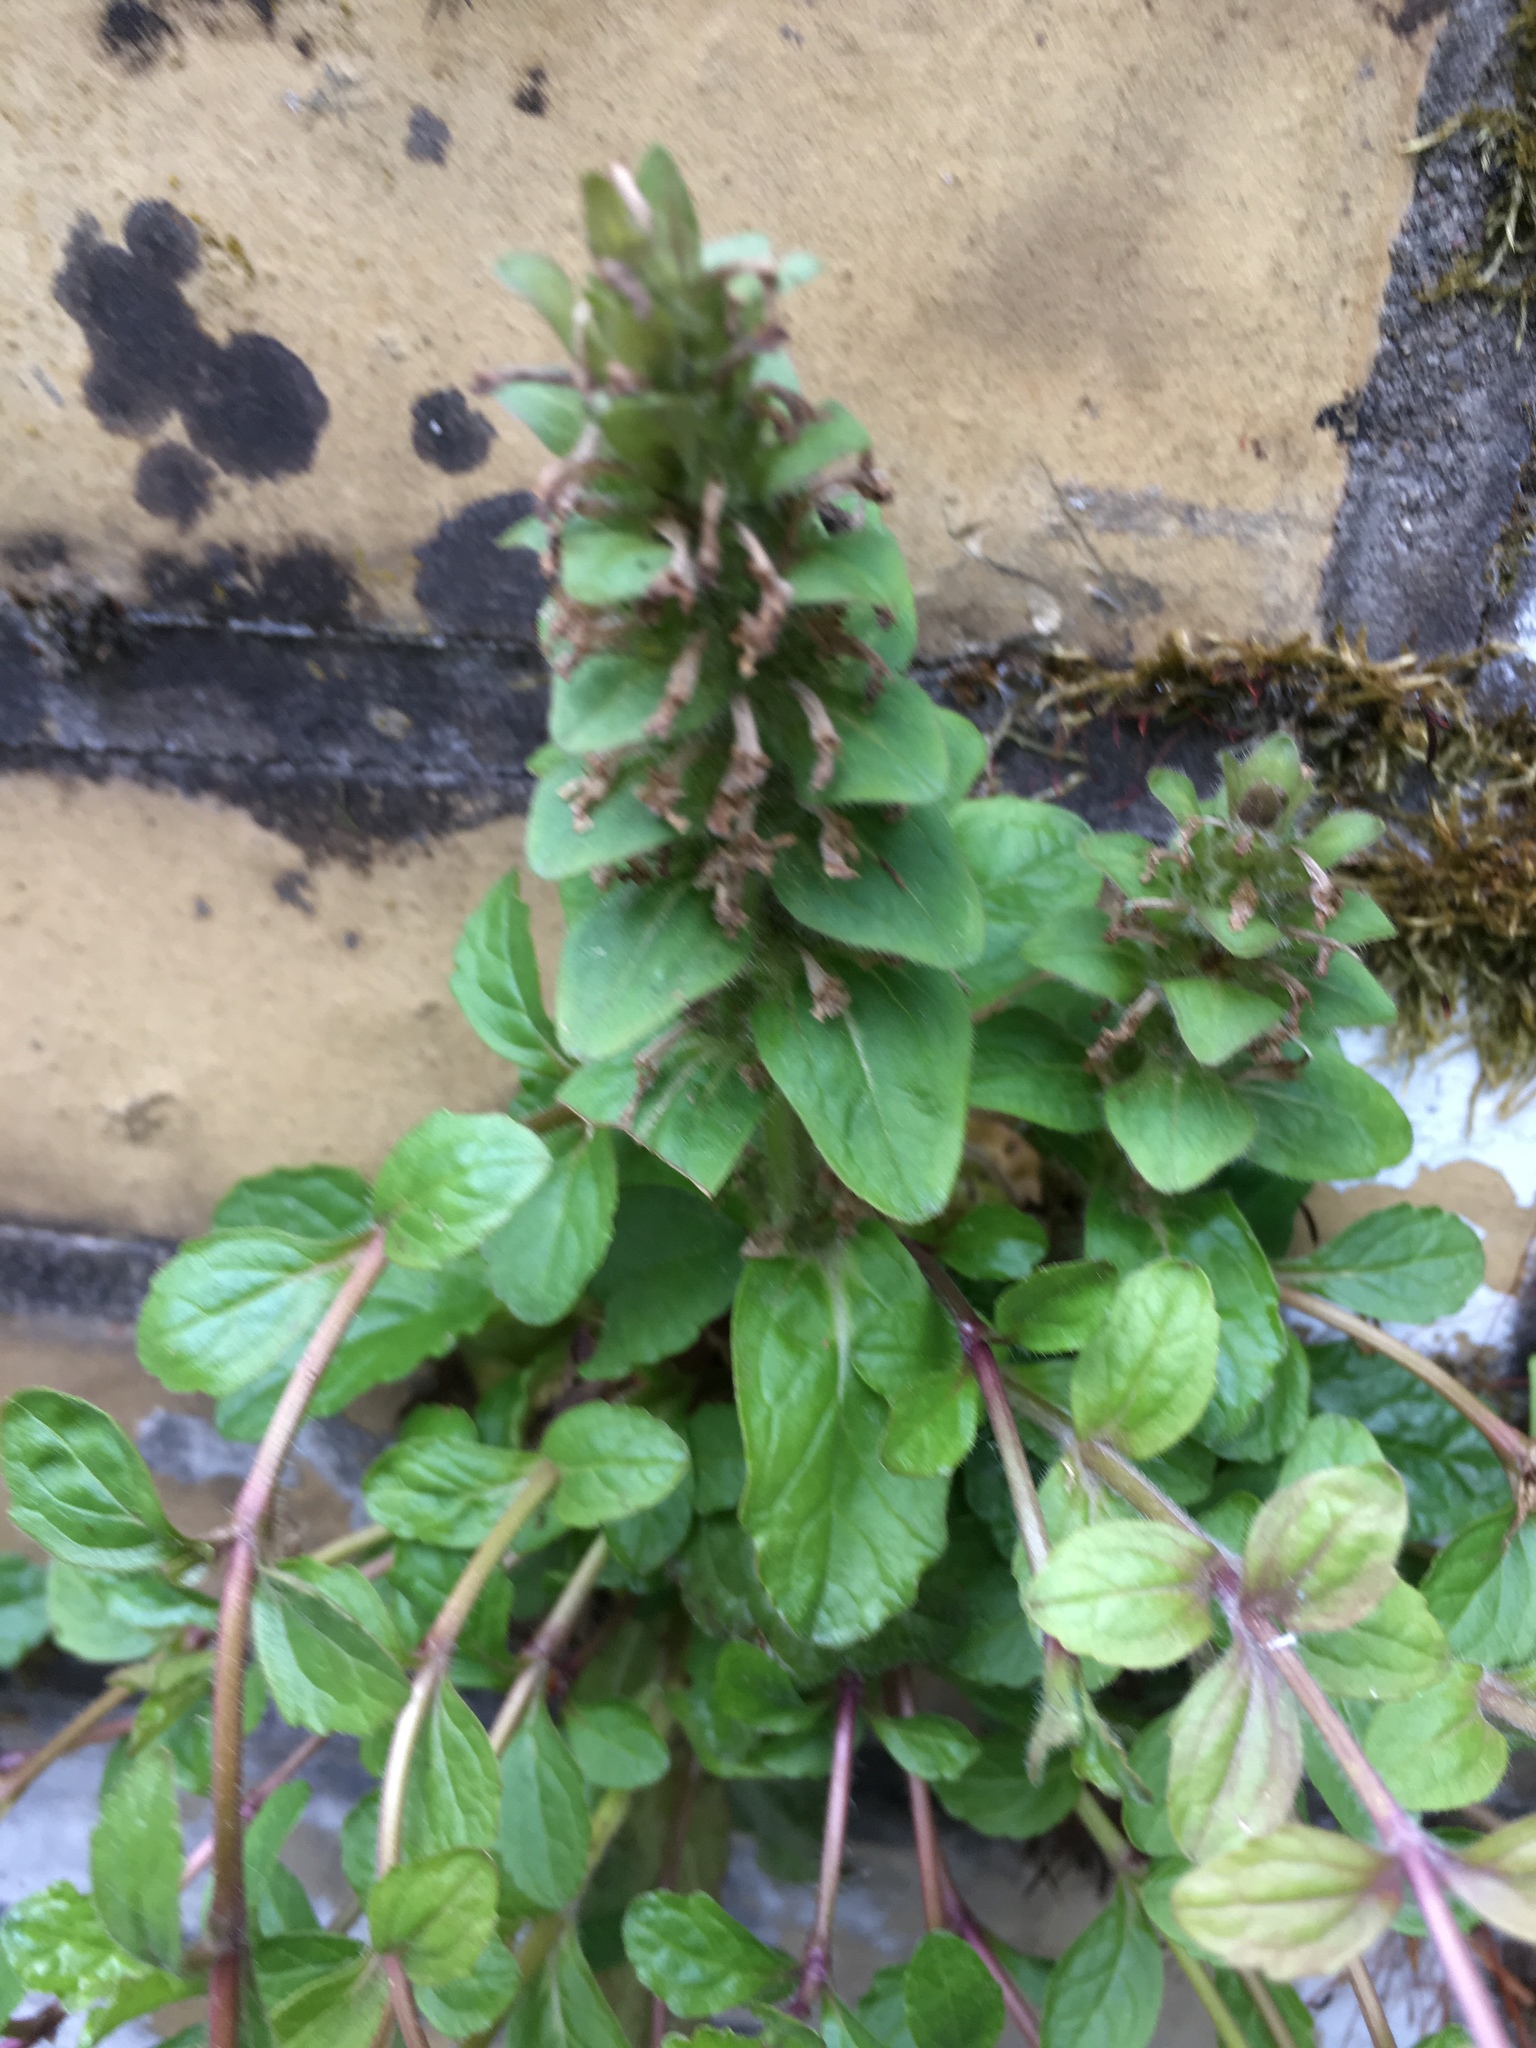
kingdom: Plantae
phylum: Tracheophyta
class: Magnoliopsida
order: Lamiales
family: Lamiaceae
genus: Ajuga
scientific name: Ajuga reptans
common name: Bugle
